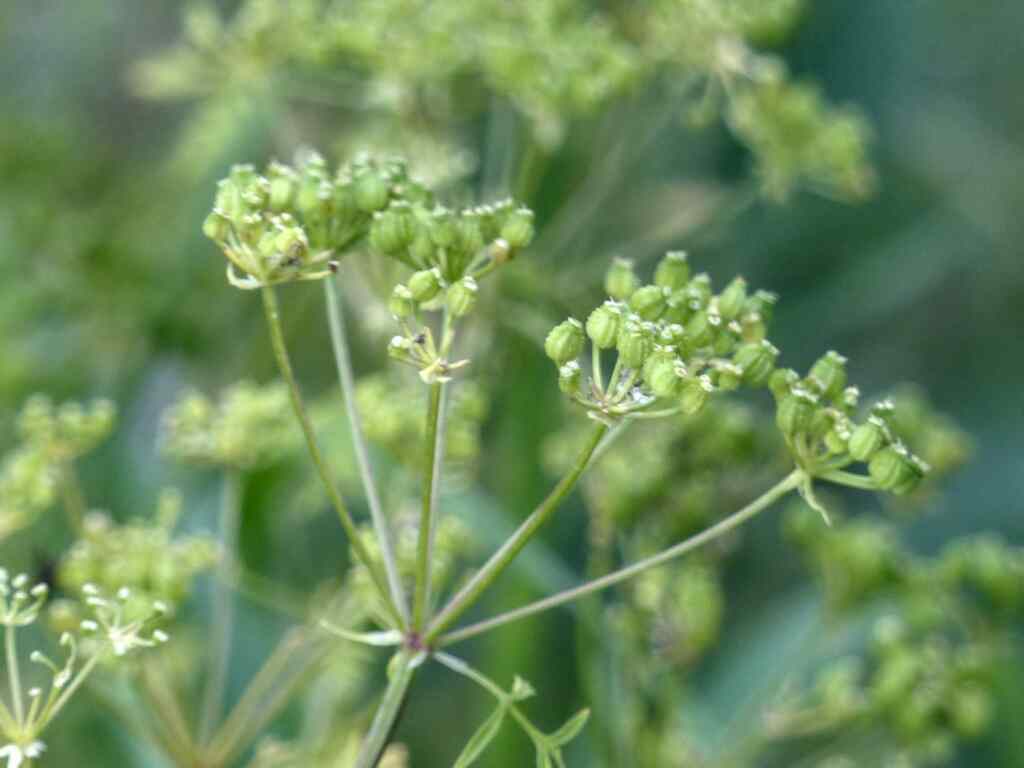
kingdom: Plantae
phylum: Tracheophyta
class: Magnoliopsida
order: Apiales
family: Apiaceae
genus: Conium
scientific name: Conium maculatum
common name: Hemlock
